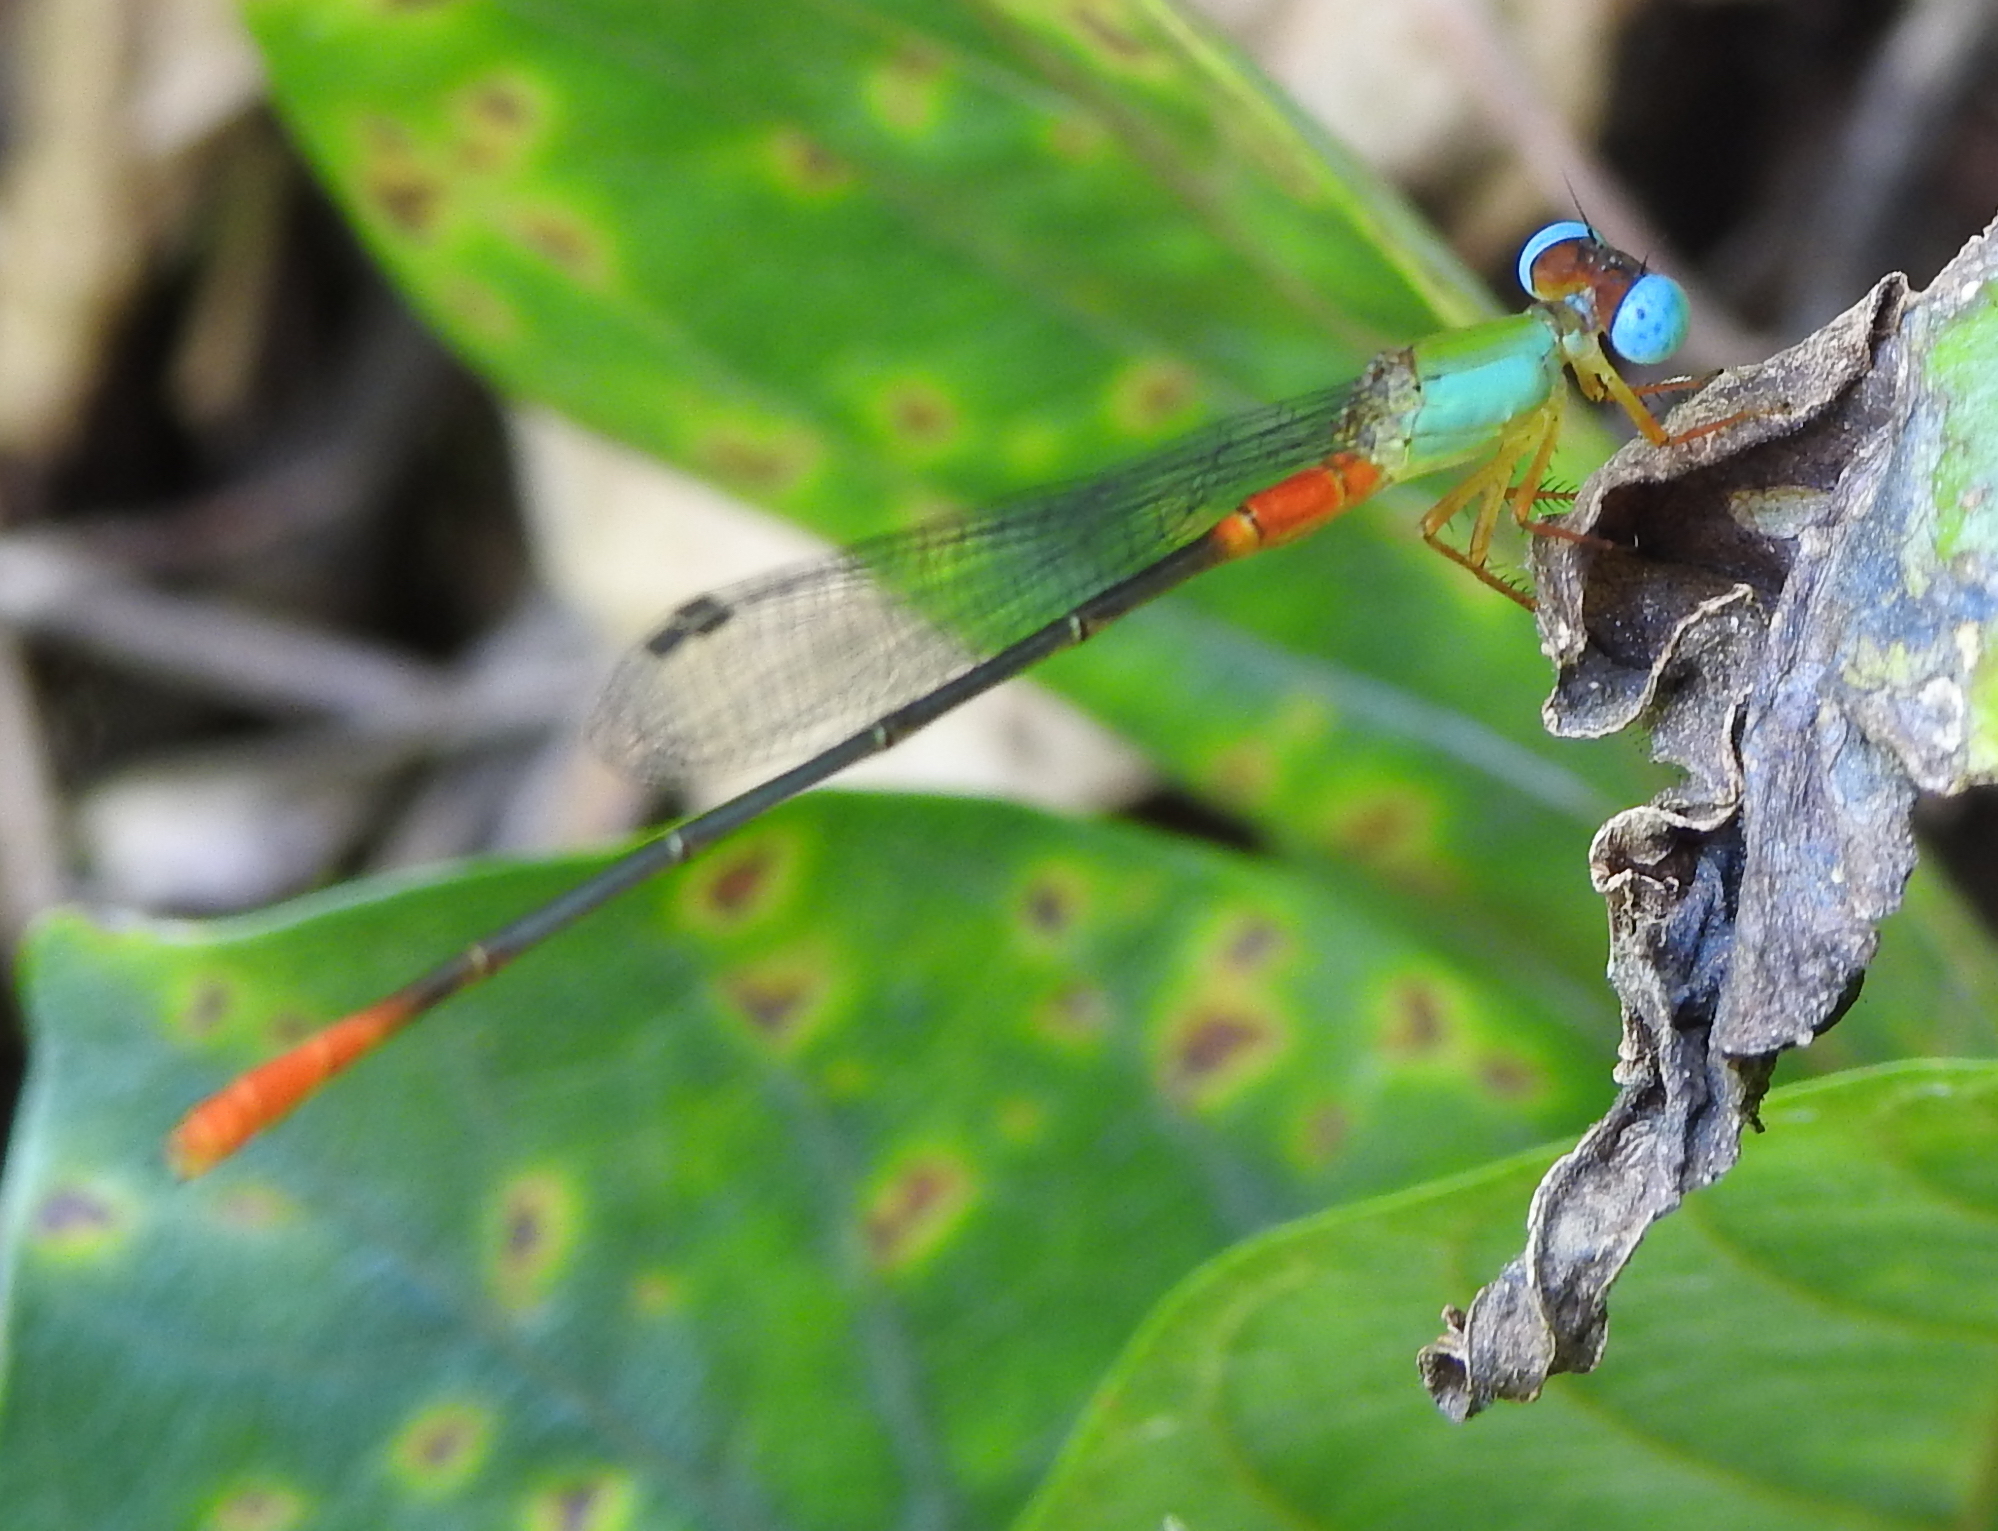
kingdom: Animalia
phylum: Arthropoda
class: Insecta
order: Odonata
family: Coenagrionidae
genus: Ceriagrion
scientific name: Ceriagrion cerinorubellum
